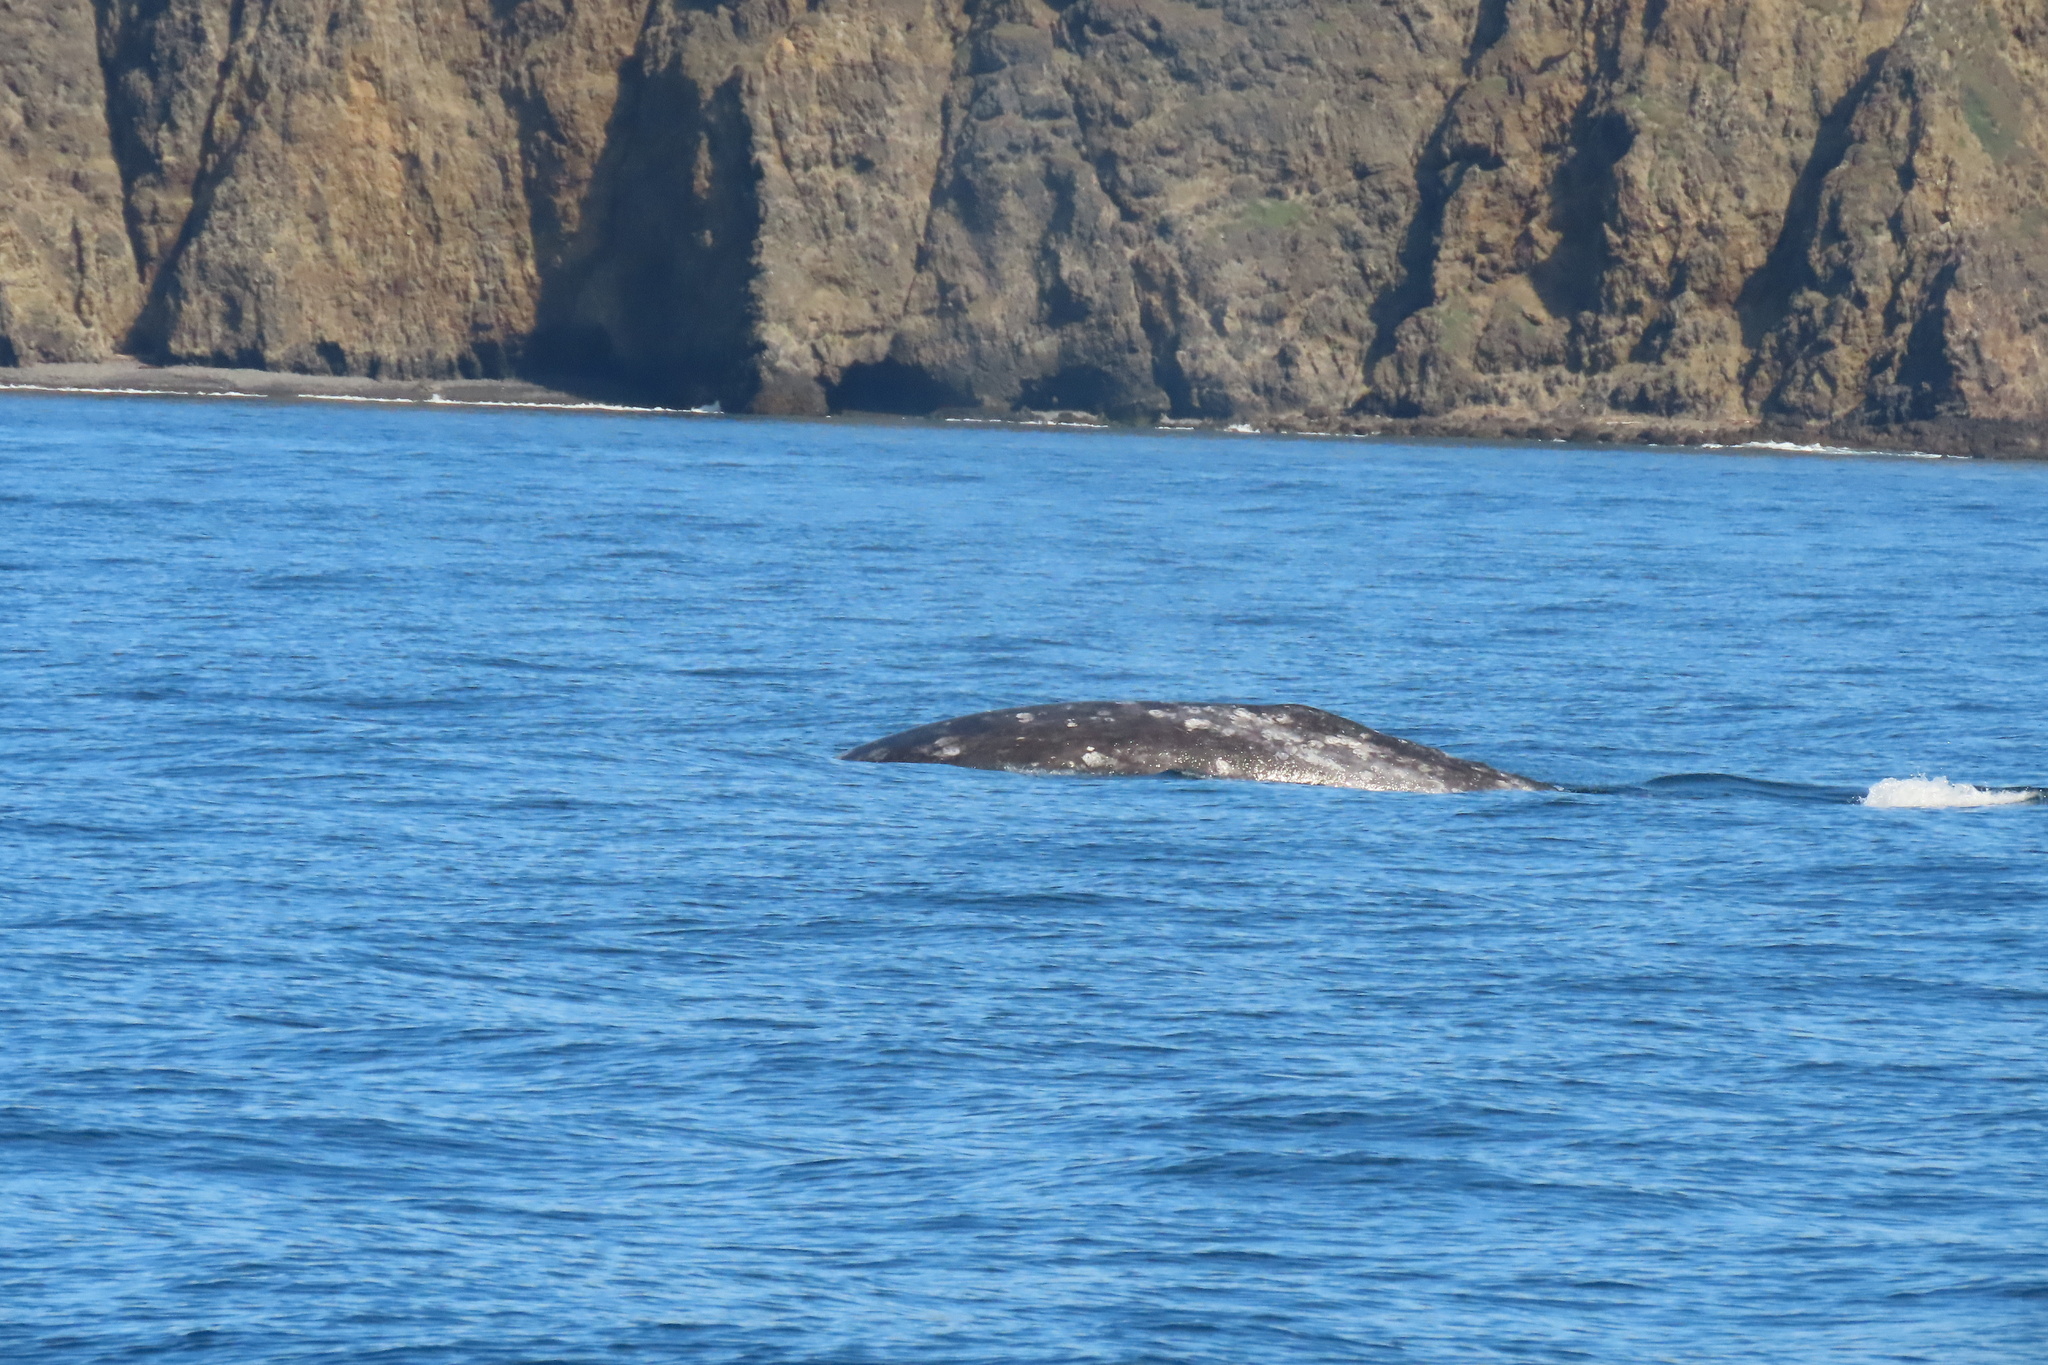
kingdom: Animalia
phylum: Chordata
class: Mammalia
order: Cetacea
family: Eschrichtiidae
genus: Eschrichtius
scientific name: Eschrichtius robustus
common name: Gray whale
